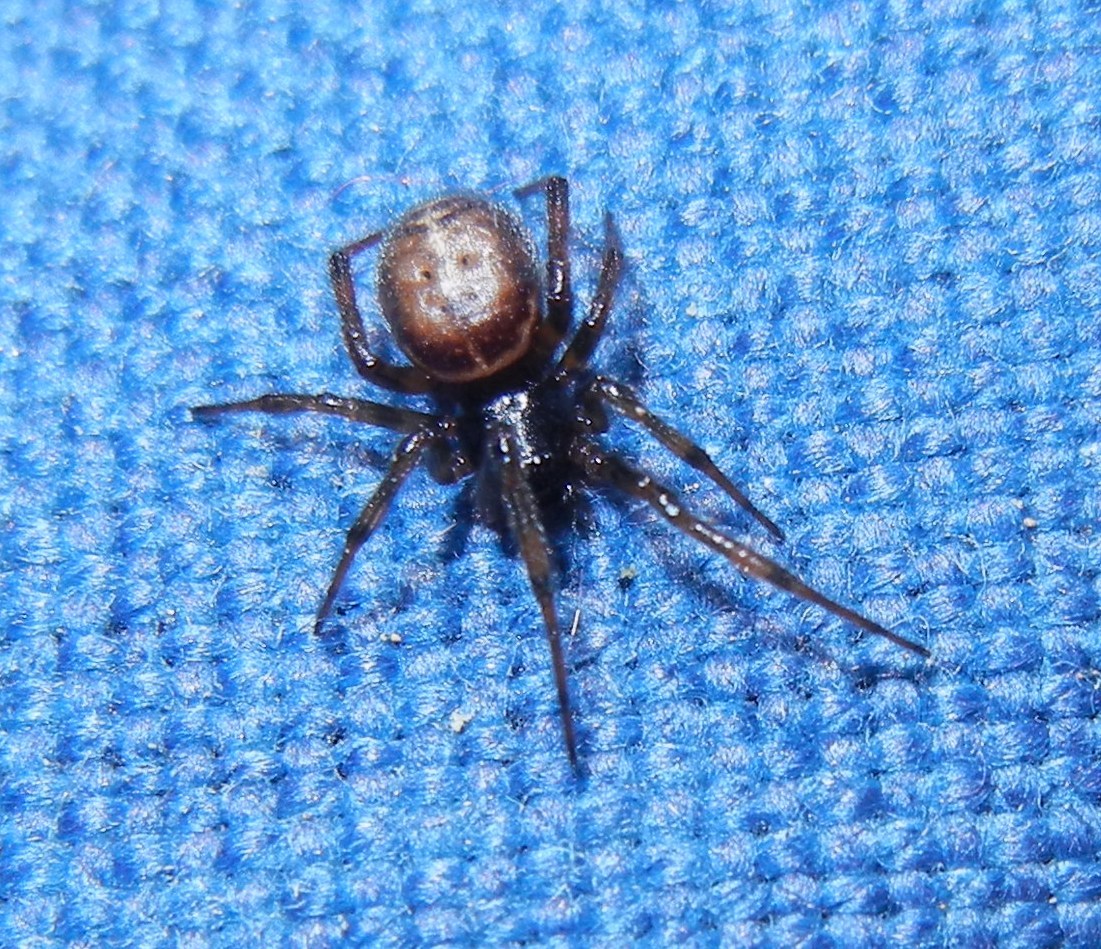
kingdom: Animalia
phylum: Arthropoda
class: Arachnida
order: Araneae
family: Theridiidae
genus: Steatoda
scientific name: Steatoda bipunctata
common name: False widow
